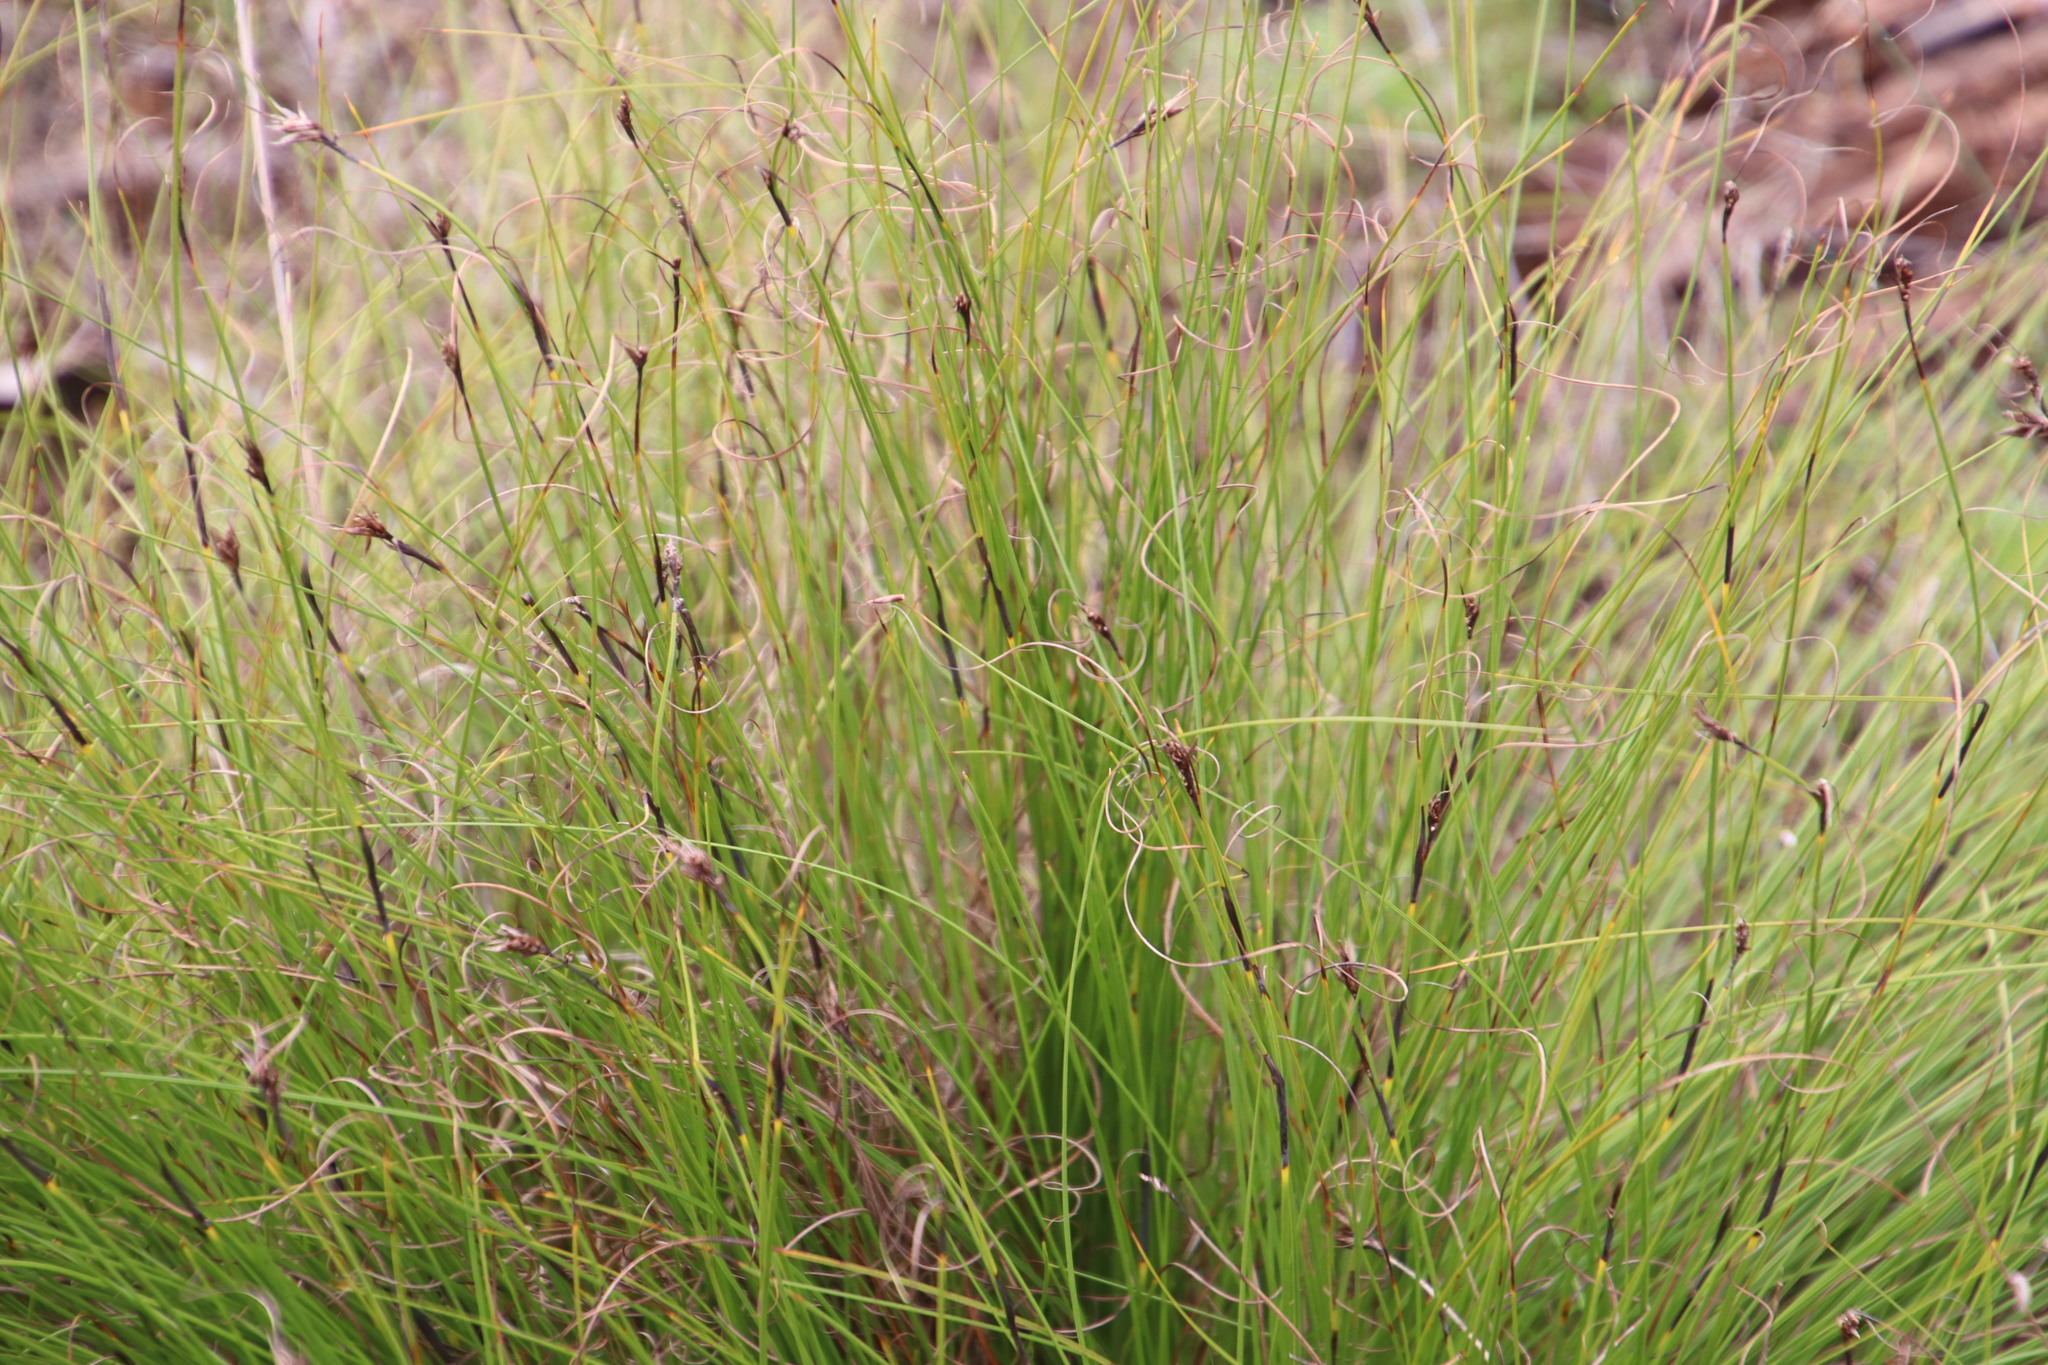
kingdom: Plantae
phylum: Tracheophyta
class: Liliopsida
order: Poales
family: Cyperaceae
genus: Tetraria
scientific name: Tetraria crinifolia
